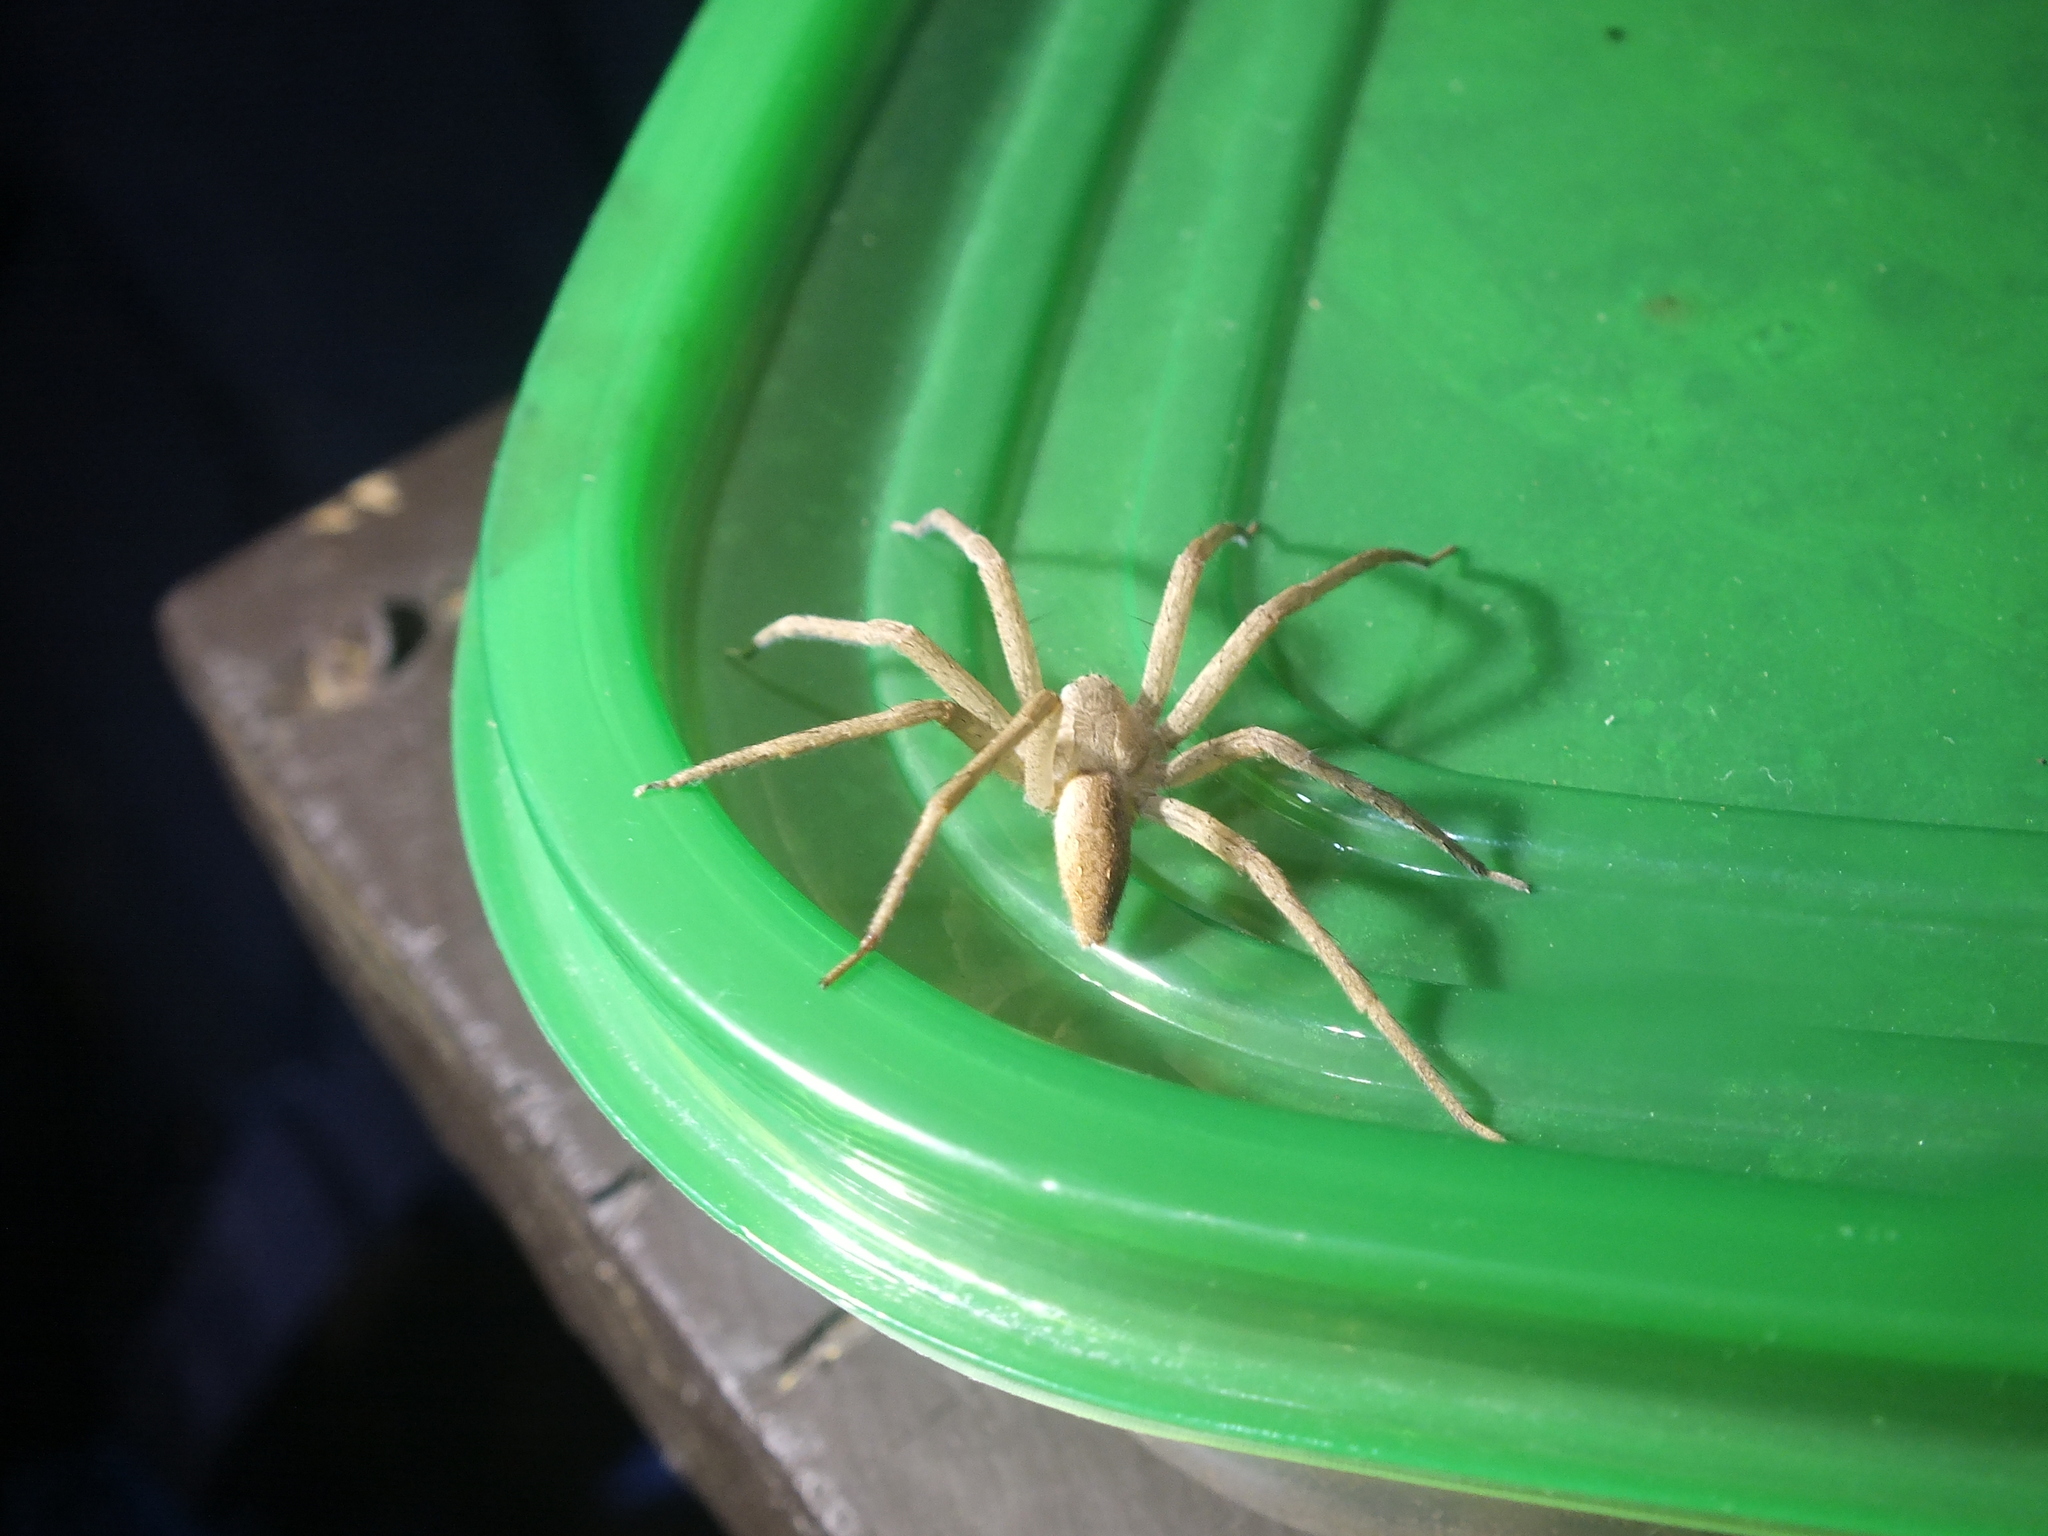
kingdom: Animalia
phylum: Arthropoda
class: Arachnida
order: Araneae
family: Pisauridae
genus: Pisaurina
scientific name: Pisaurina mira
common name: American nursery web spider
